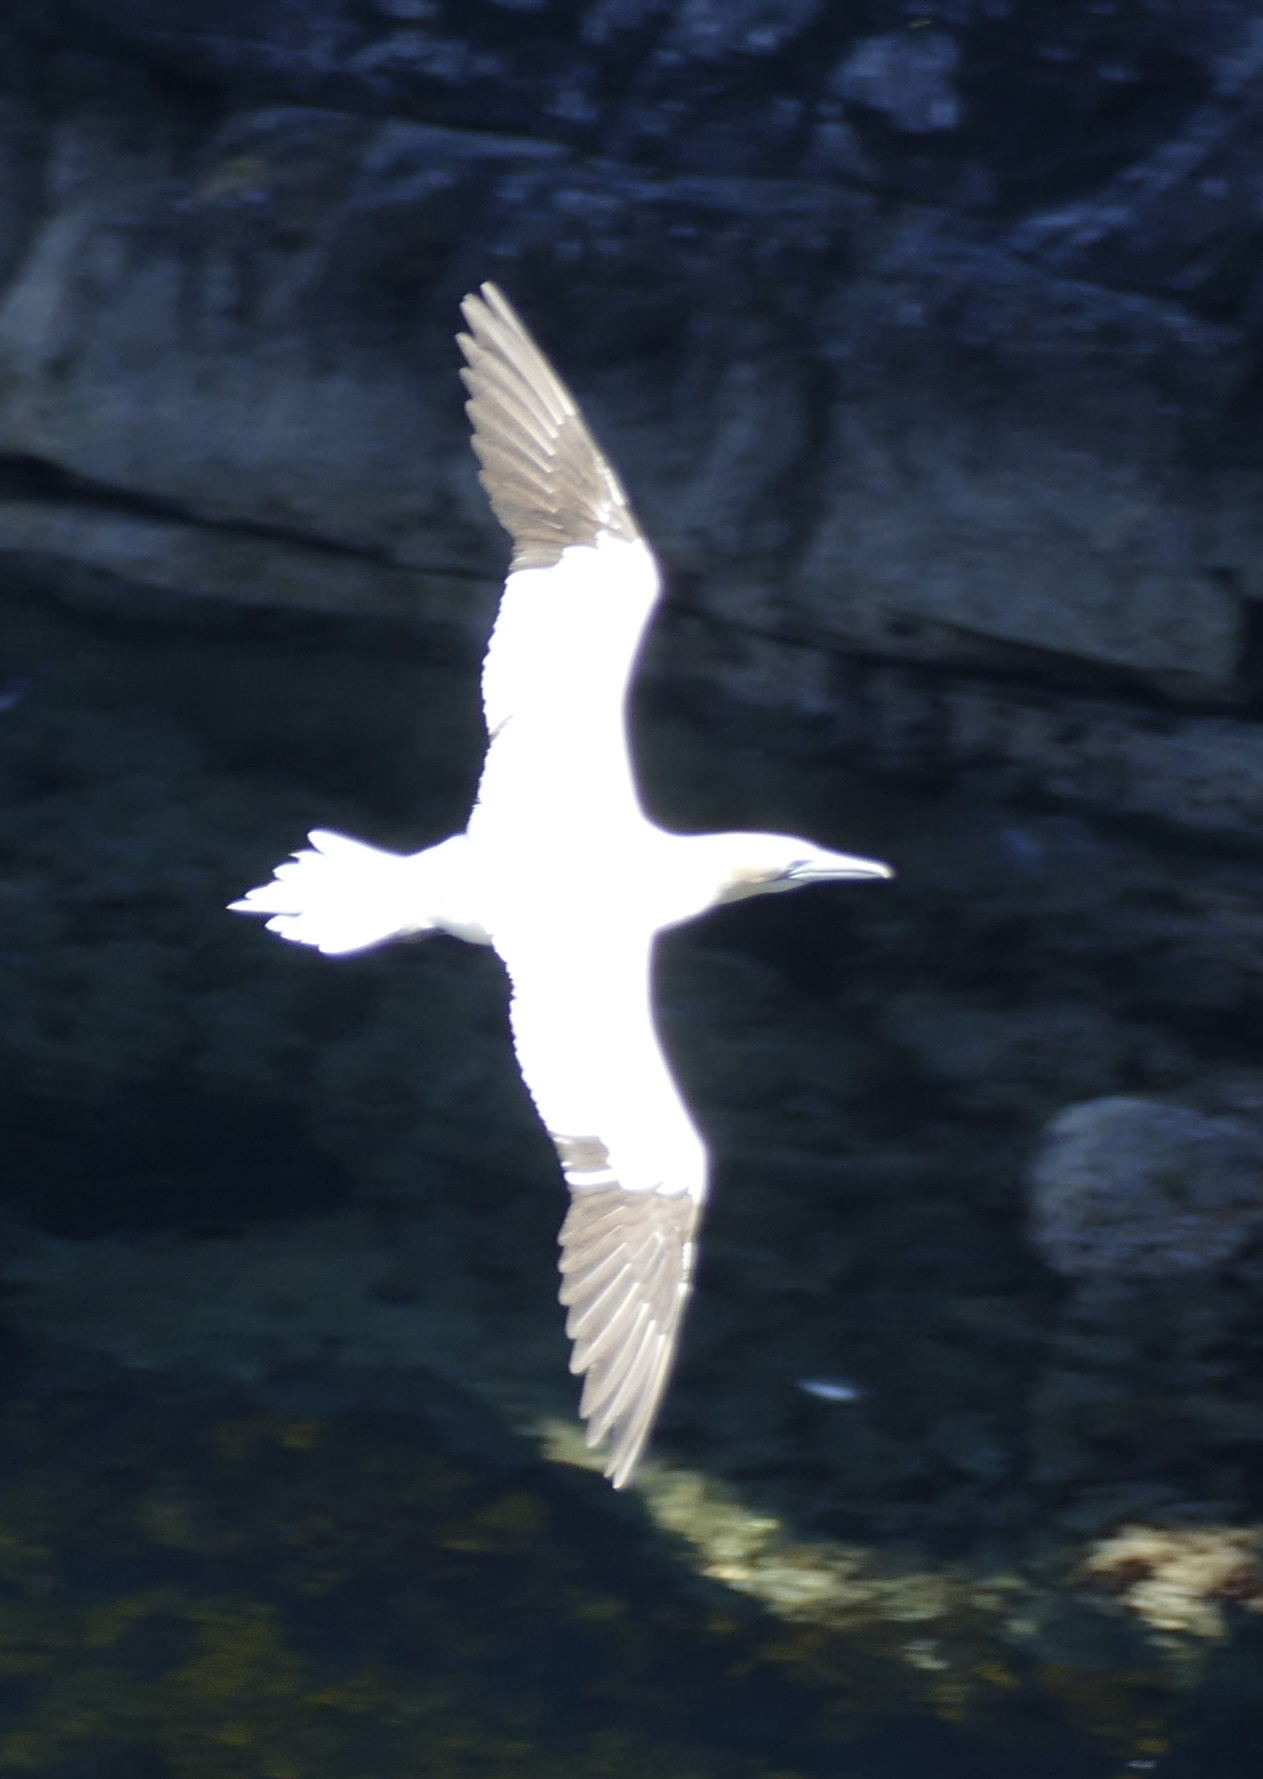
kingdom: Animalia
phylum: Chordata
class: Aves
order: Suliformes
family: Sulidae
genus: Morus
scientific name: Morus bassanus
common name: Northern gannet
